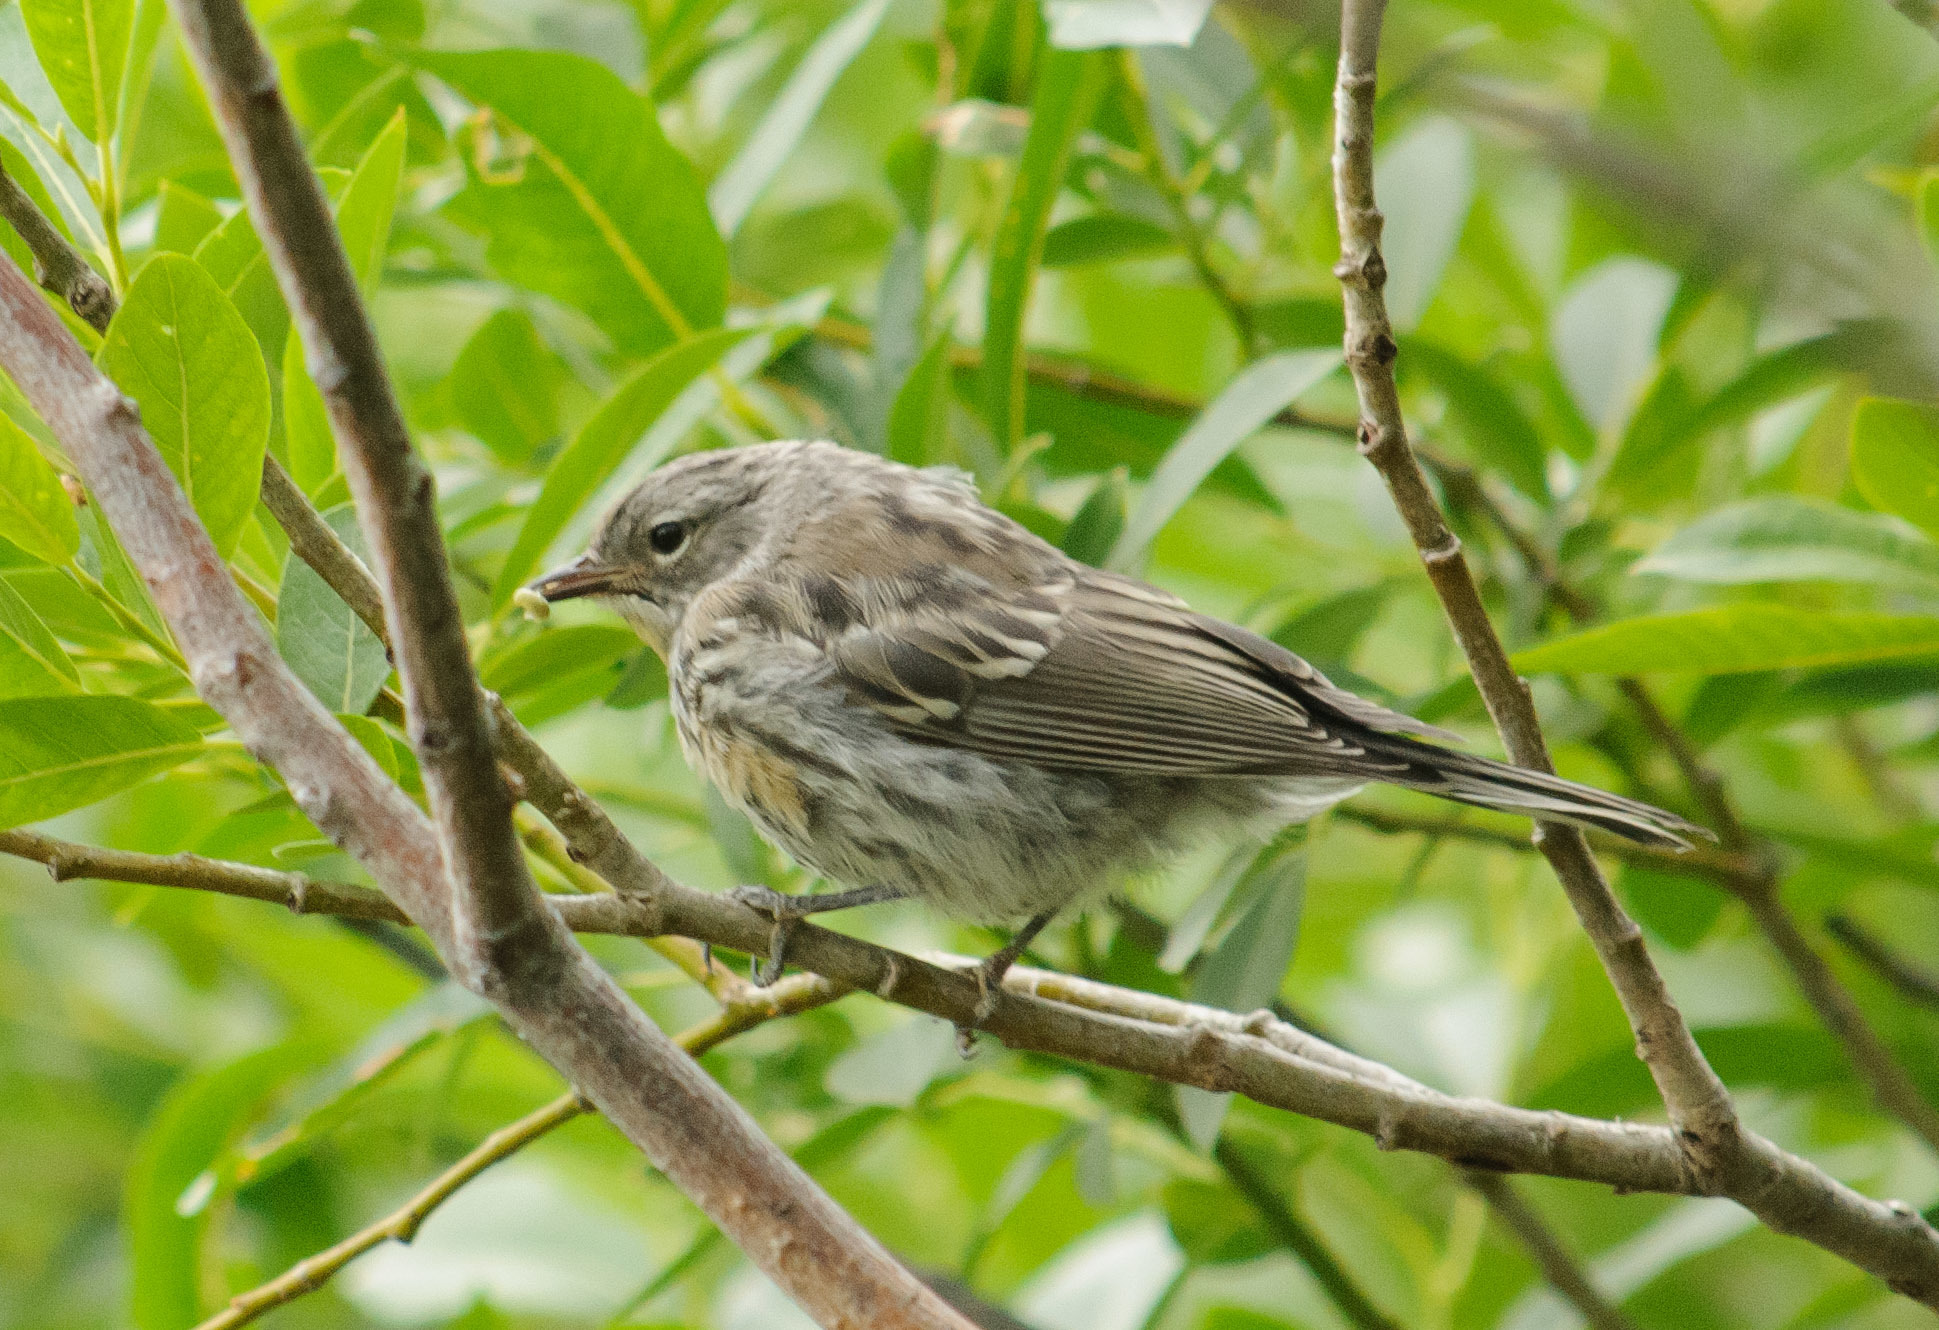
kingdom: Animalia
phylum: Chordata
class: Aves
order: Passeriformes
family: Parulidae
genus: Setophaga
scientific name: Setophaga coronata
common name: Myrtle warbler
